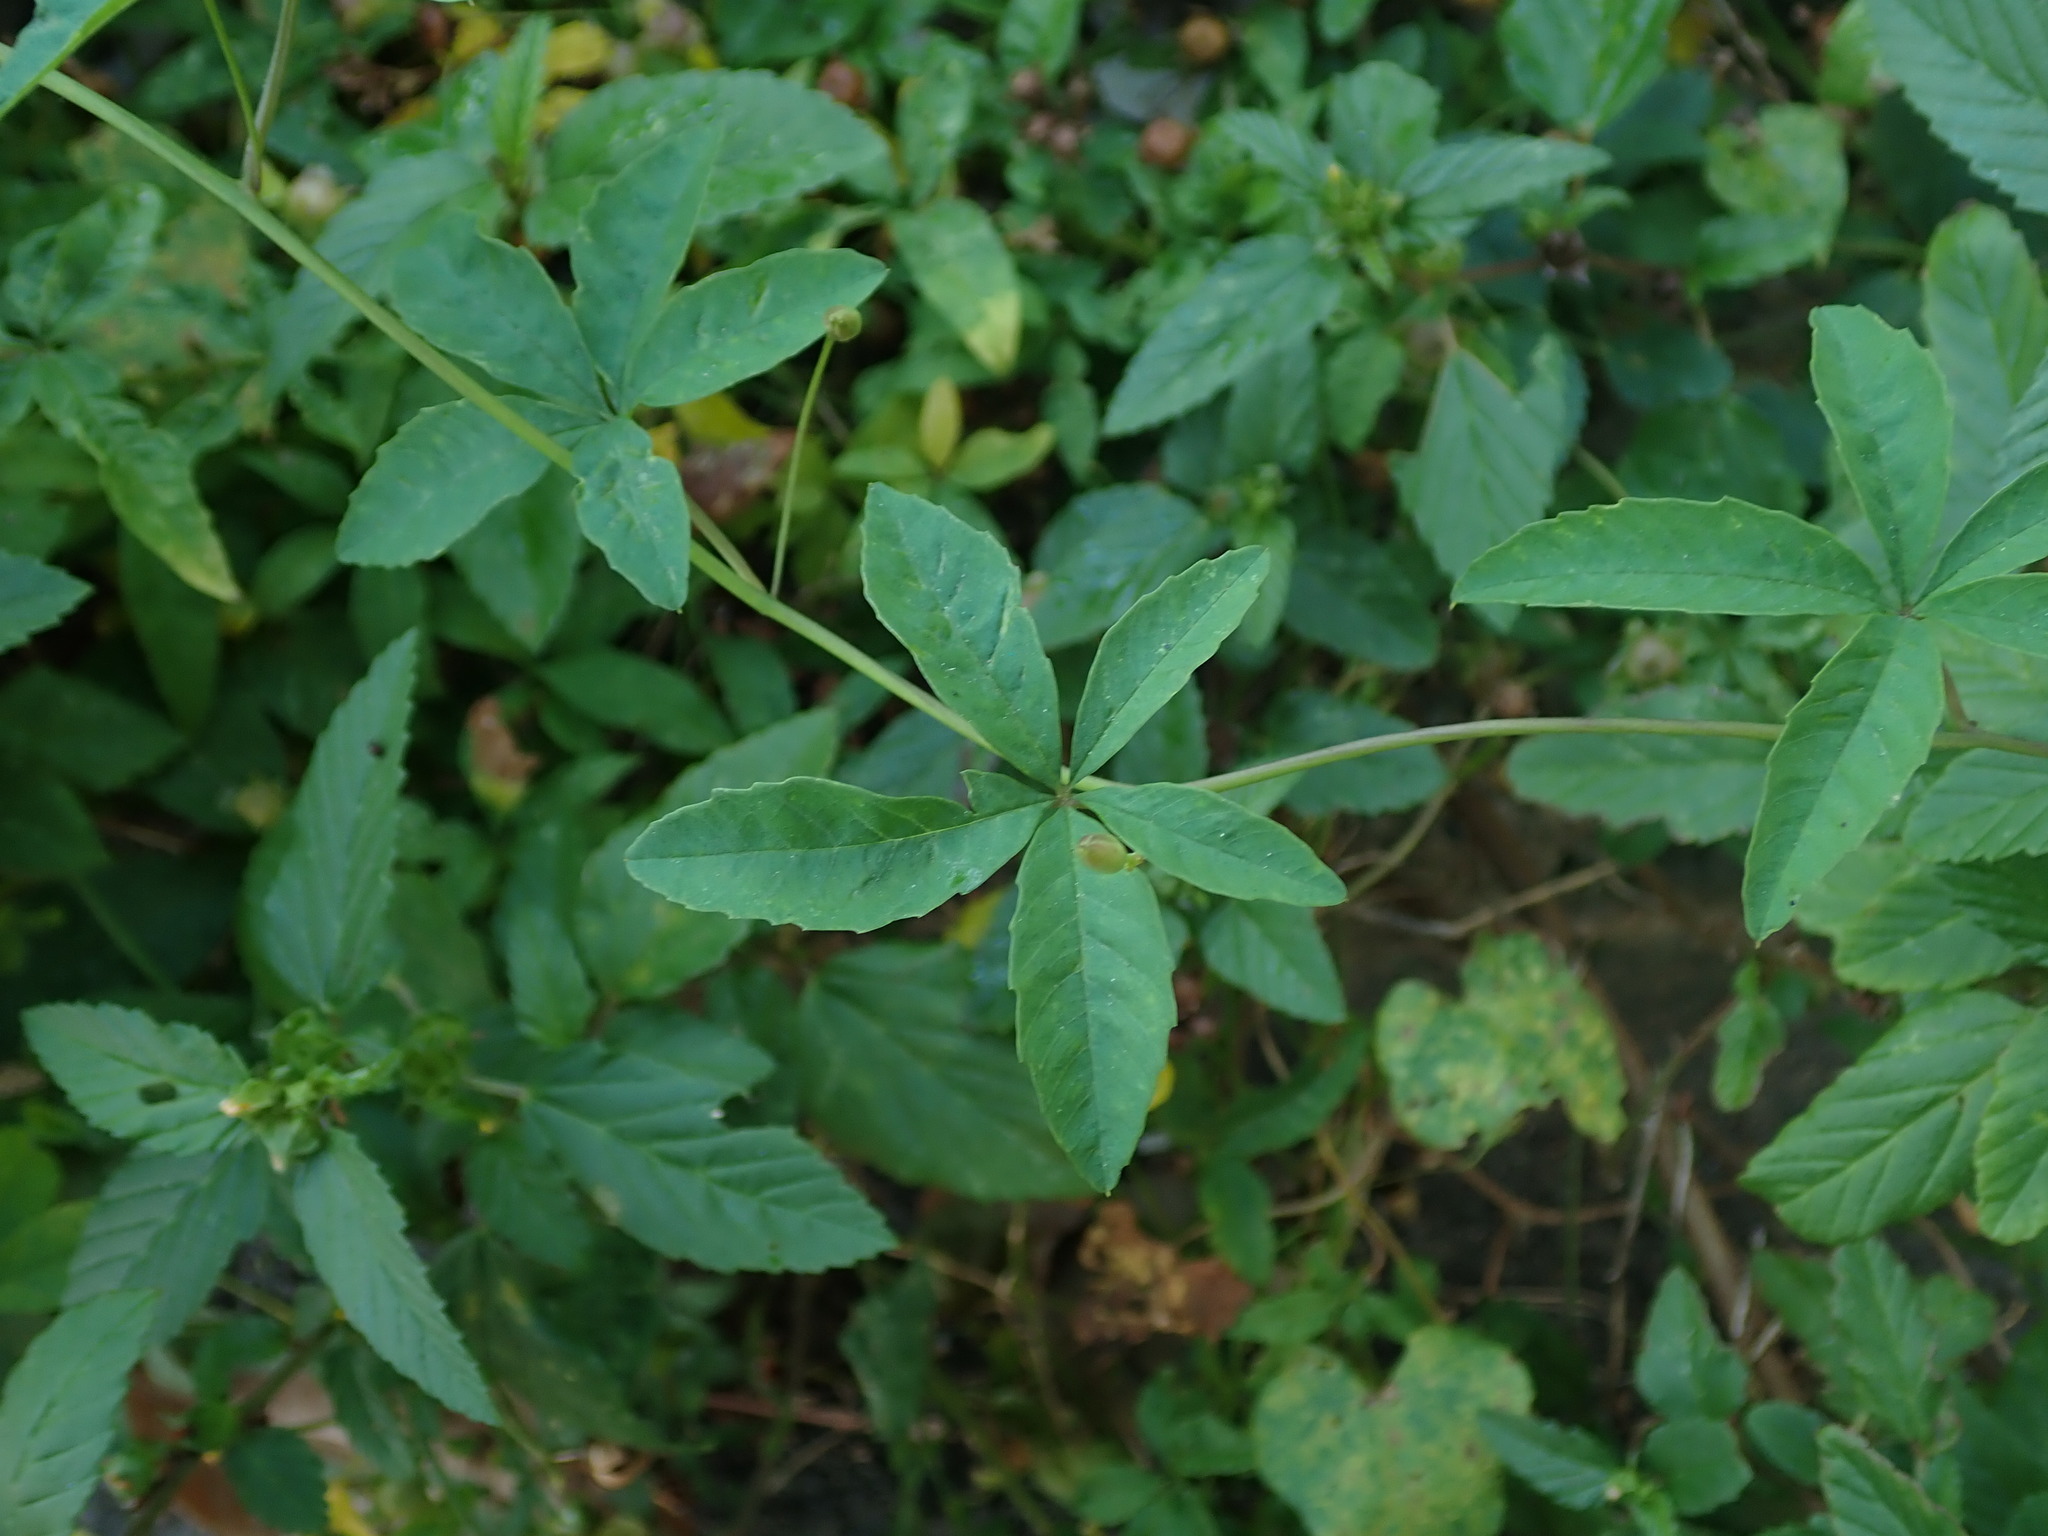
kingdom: Plantae
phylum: Tracheophyta
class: Magnoliopsida
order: Solanales
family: Convolvulaceae
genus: Distimake
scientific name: Distimake quinquefolius
